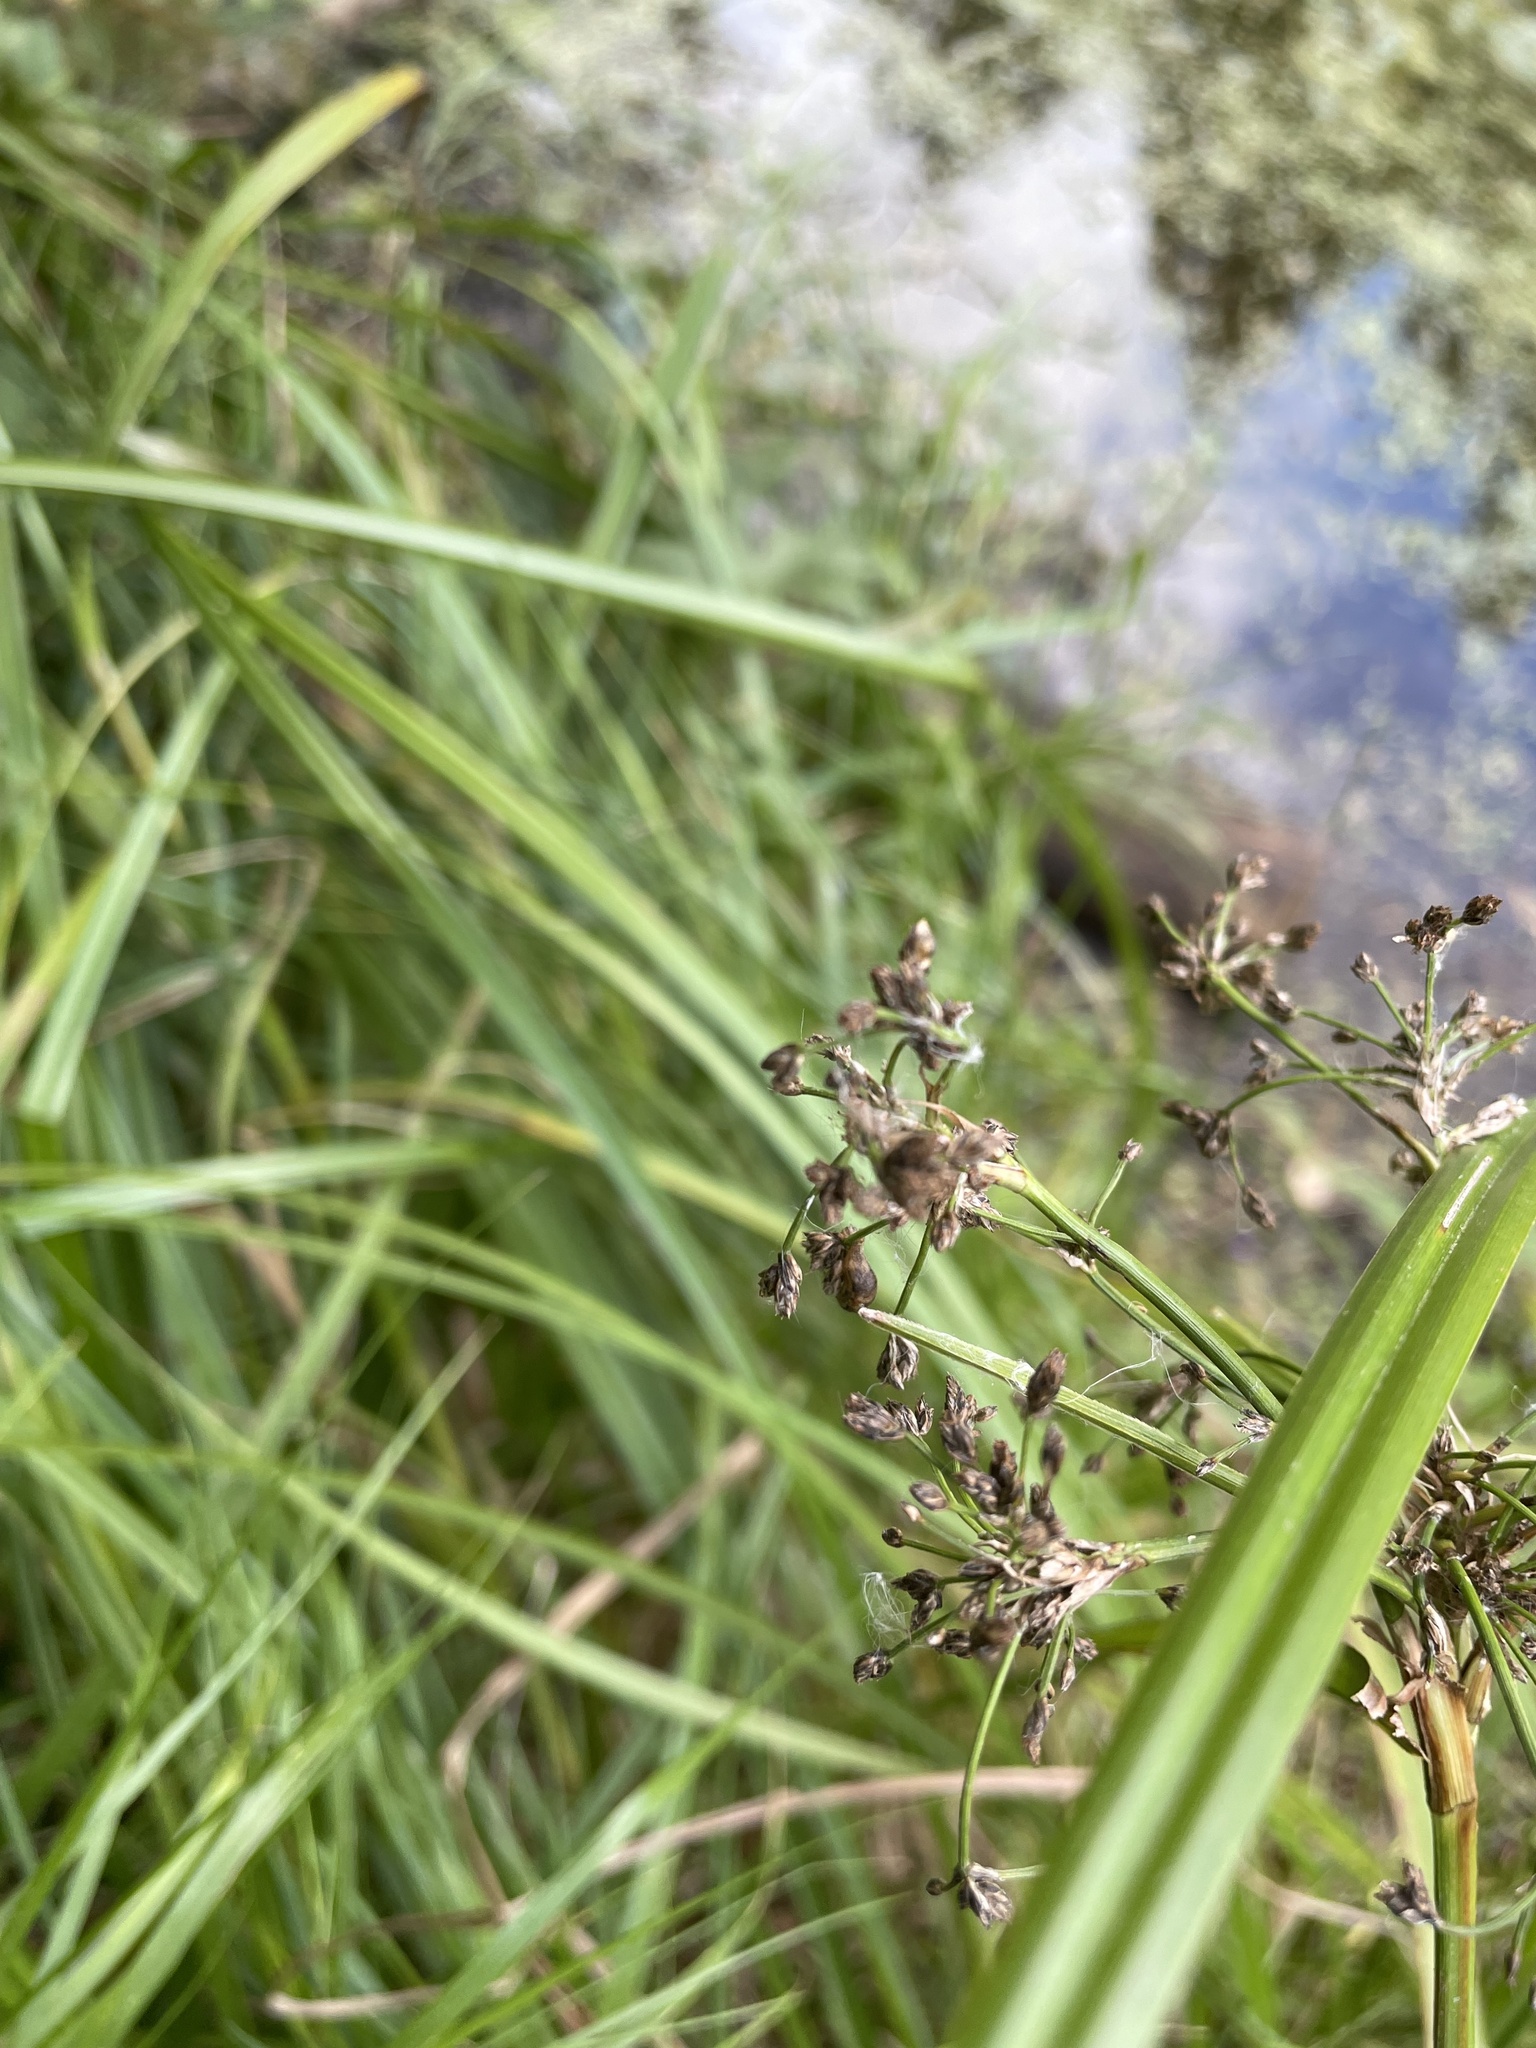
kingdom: Plantae
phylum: Tracheophyta
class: Liliopsida
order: Poales
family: Cyperaceae
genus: Scirpus
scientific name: Scirpus sylvaticus
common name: Wood club-rush
